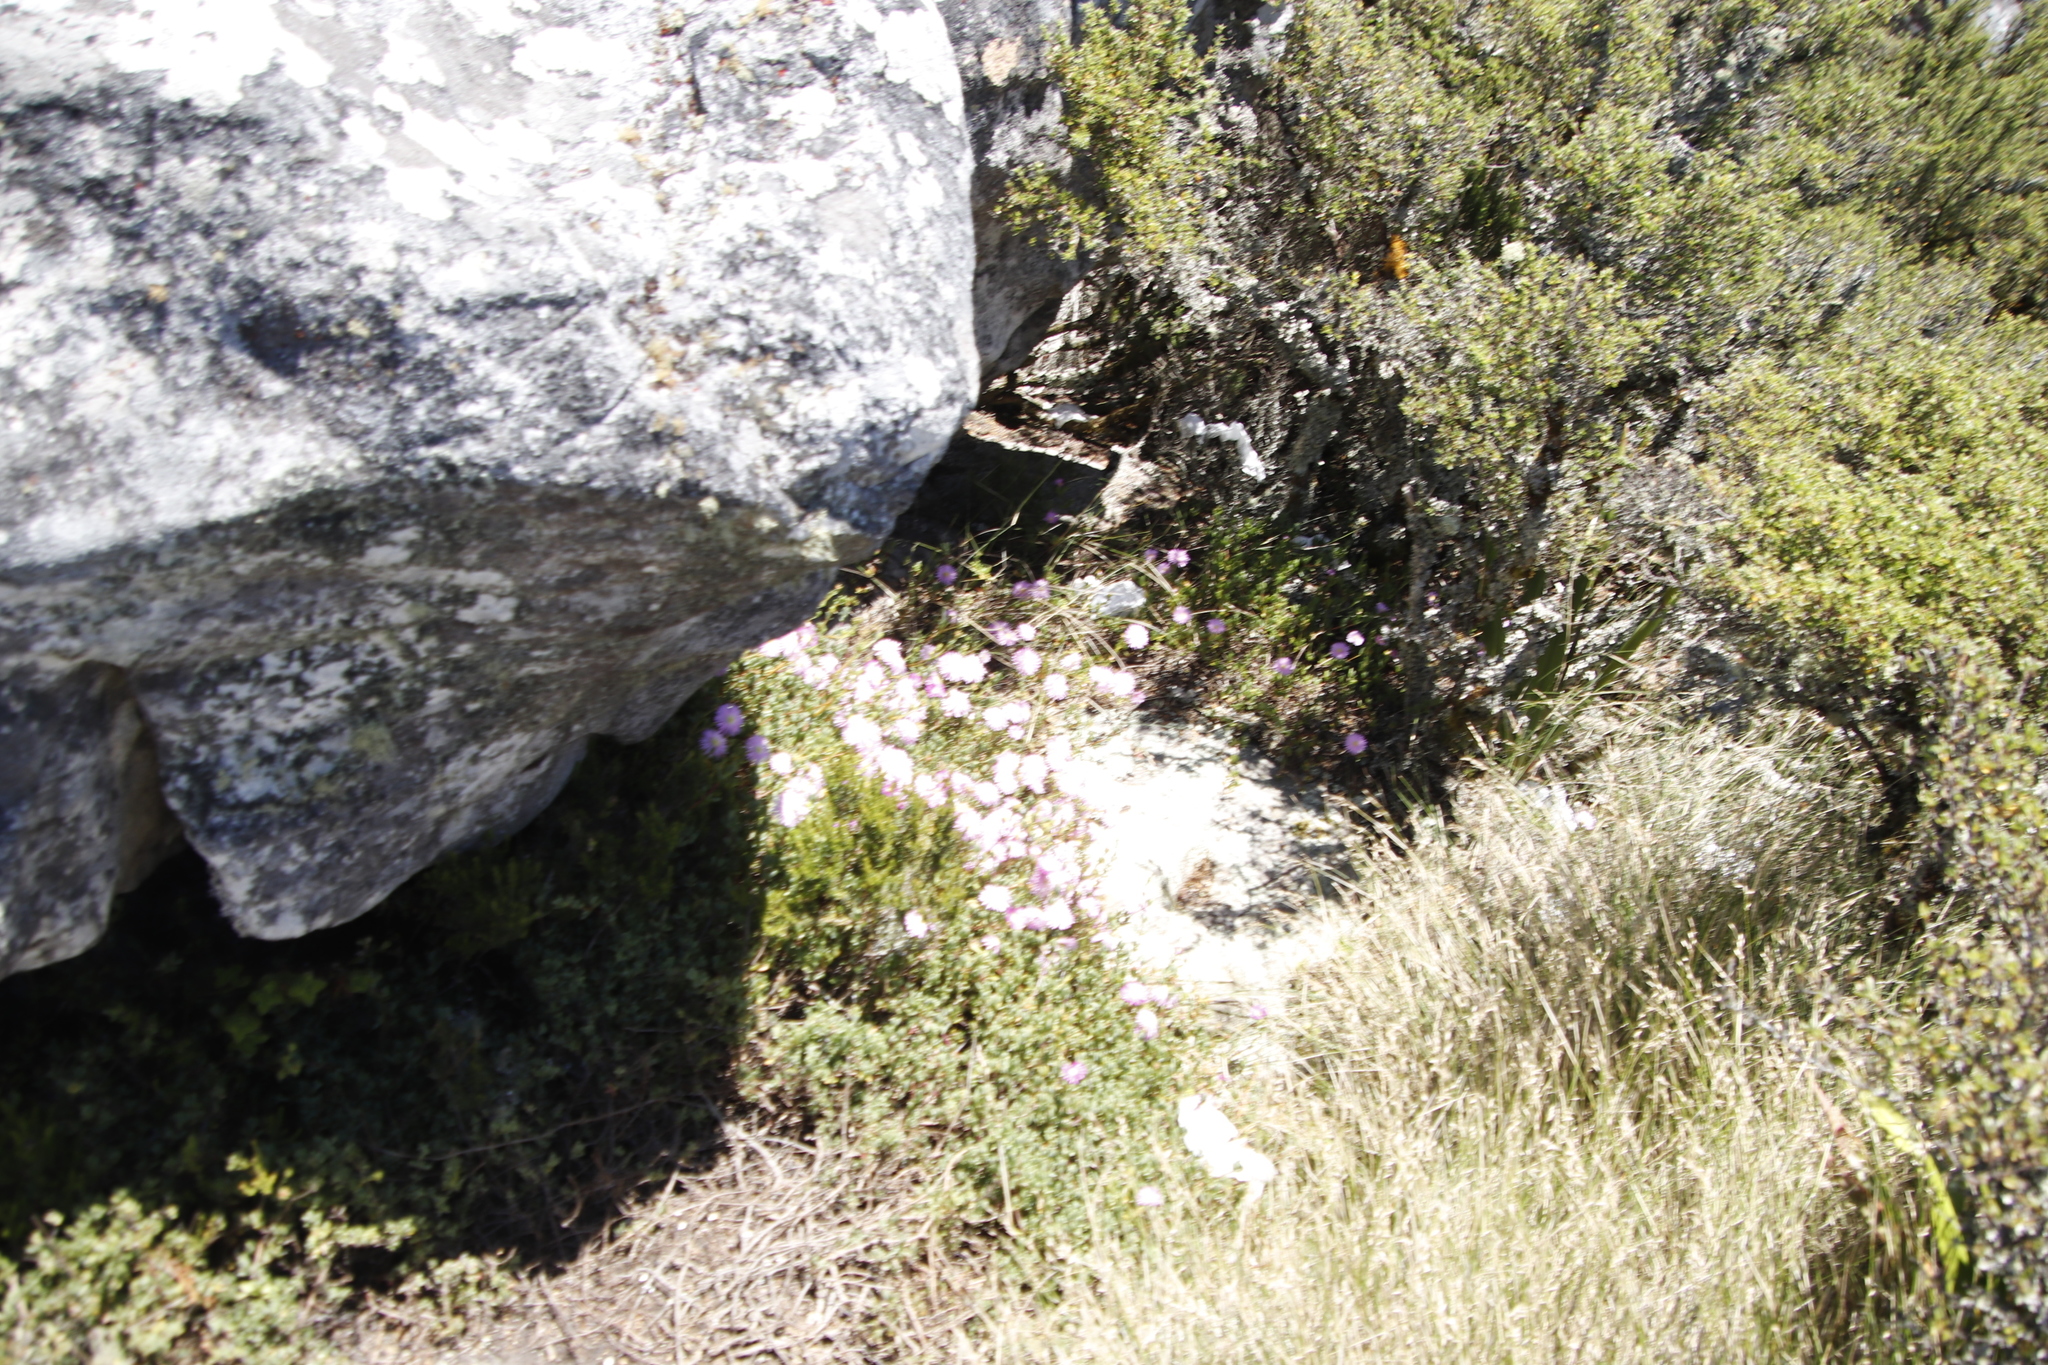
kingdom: Plantae
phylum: Tracheophyta
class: Magnoliopsida
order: Caryophyllales
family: Aizoaceae
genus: Oscularia
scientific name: Oscularia falciformis
